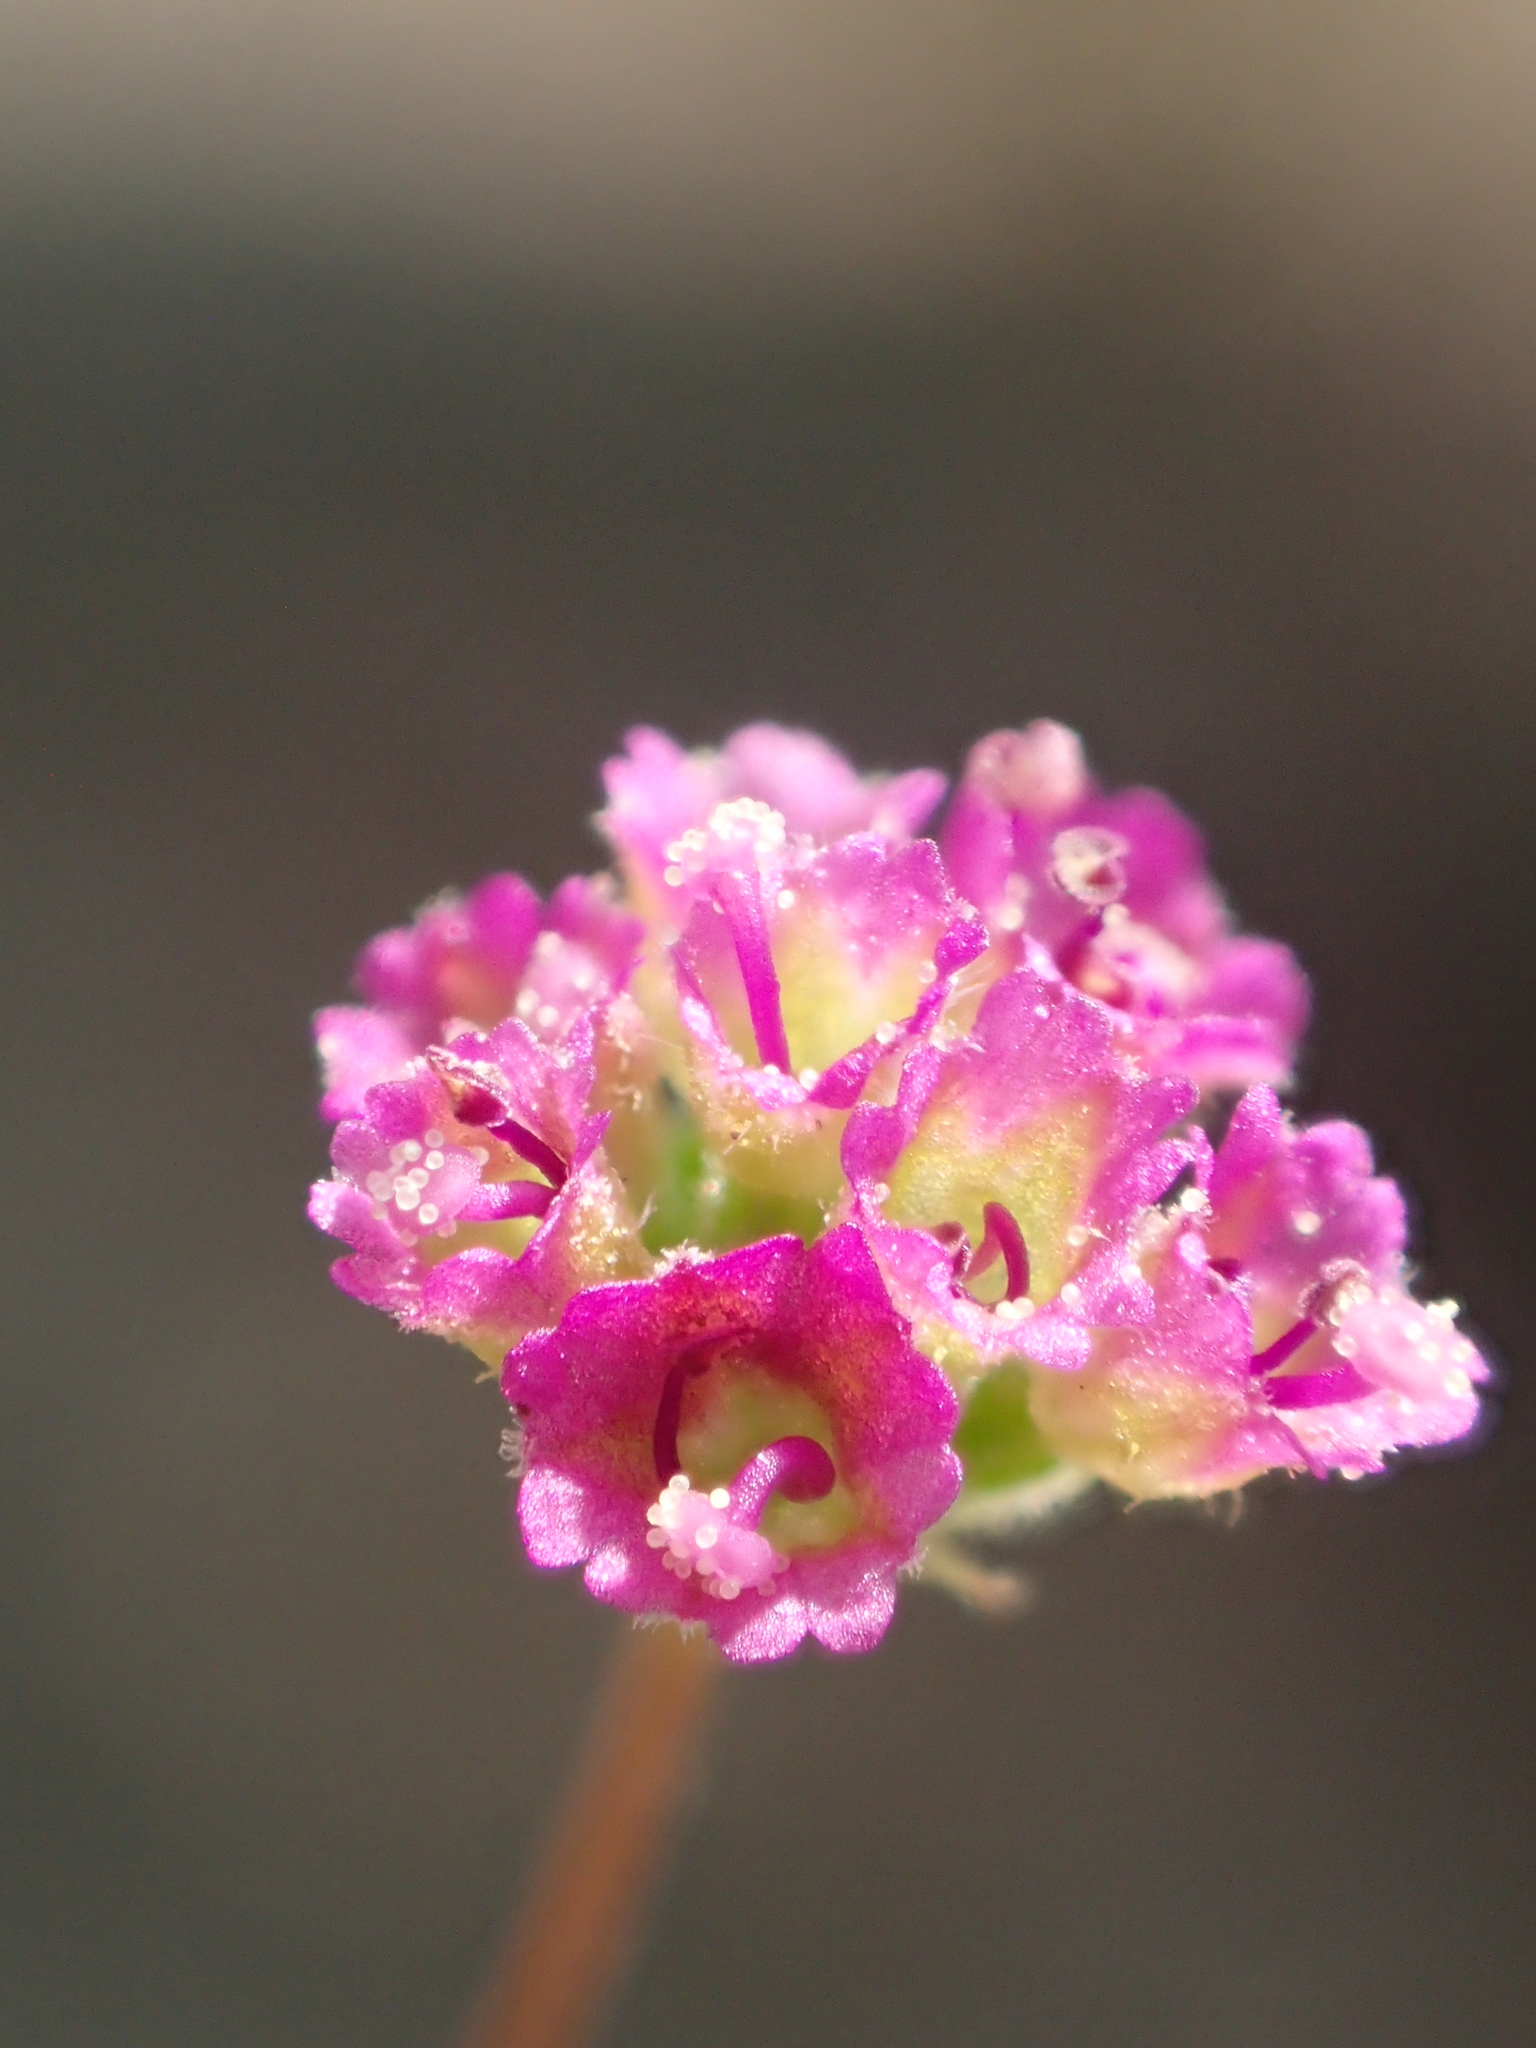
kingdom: Plantae
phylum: Tracheophyta
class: Magnoliopsida
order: Caryophyllales
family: Nyctaginaceae
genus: Boerhavia
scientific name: Boerhavia coccinea
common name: Scarlet spiderling
